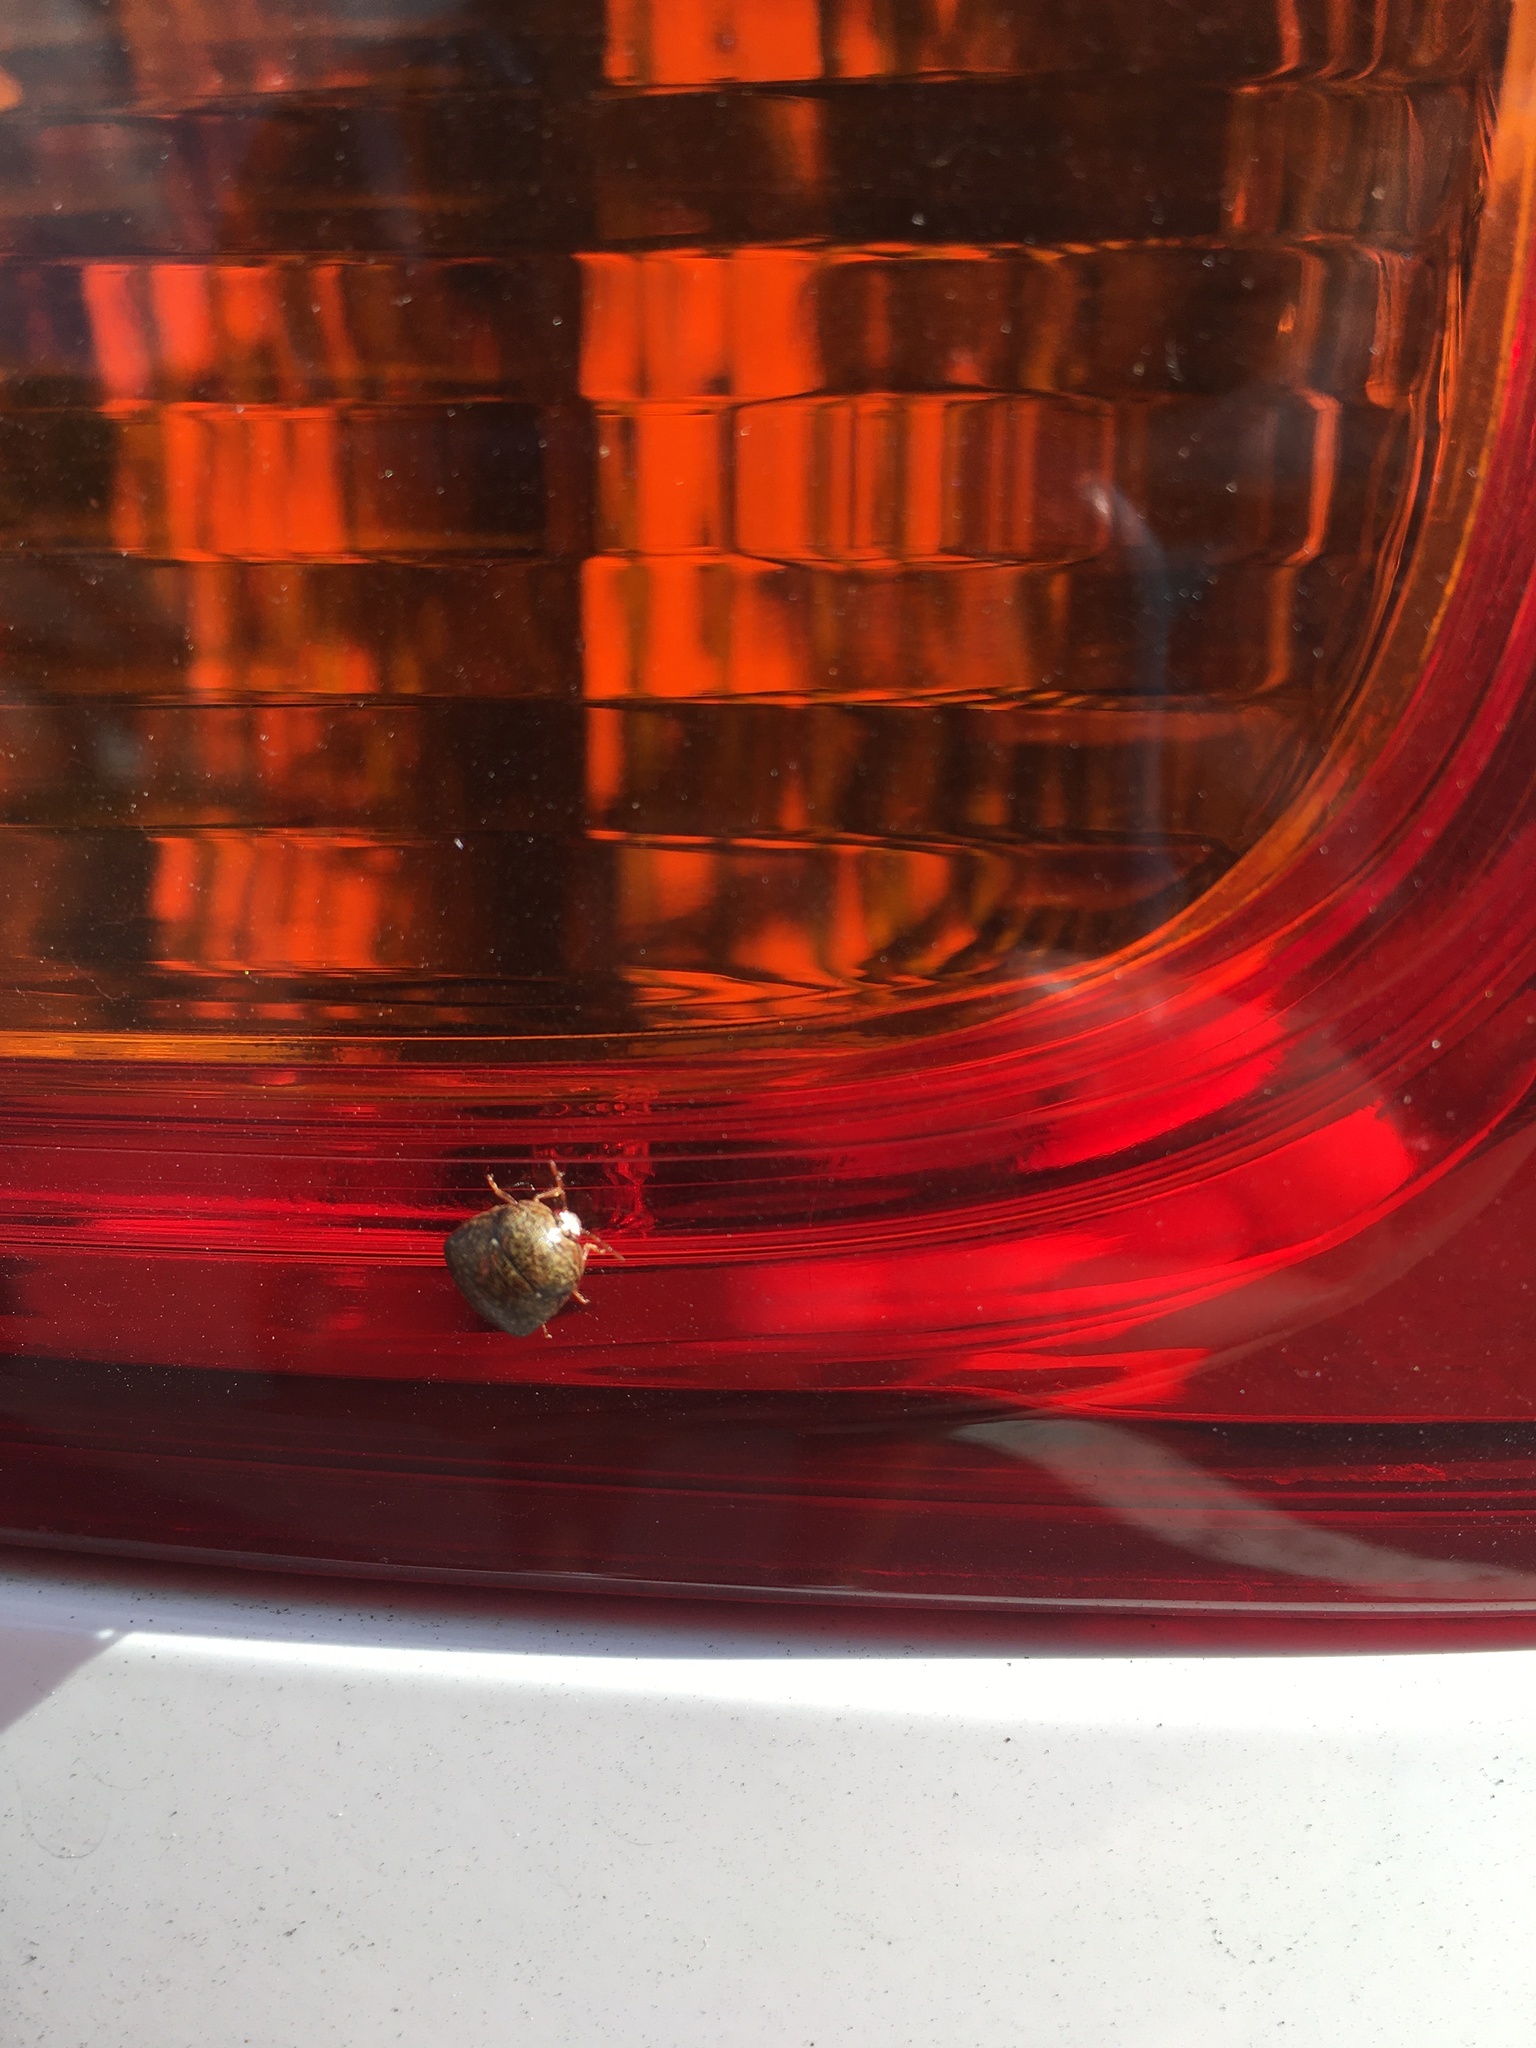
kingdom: Animalia
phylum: Arthropoda
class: Insecta
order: Hemiptera
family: Plataspidae
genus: Megacopta
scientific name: Megacopta cribraria
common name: Bean plataspid
